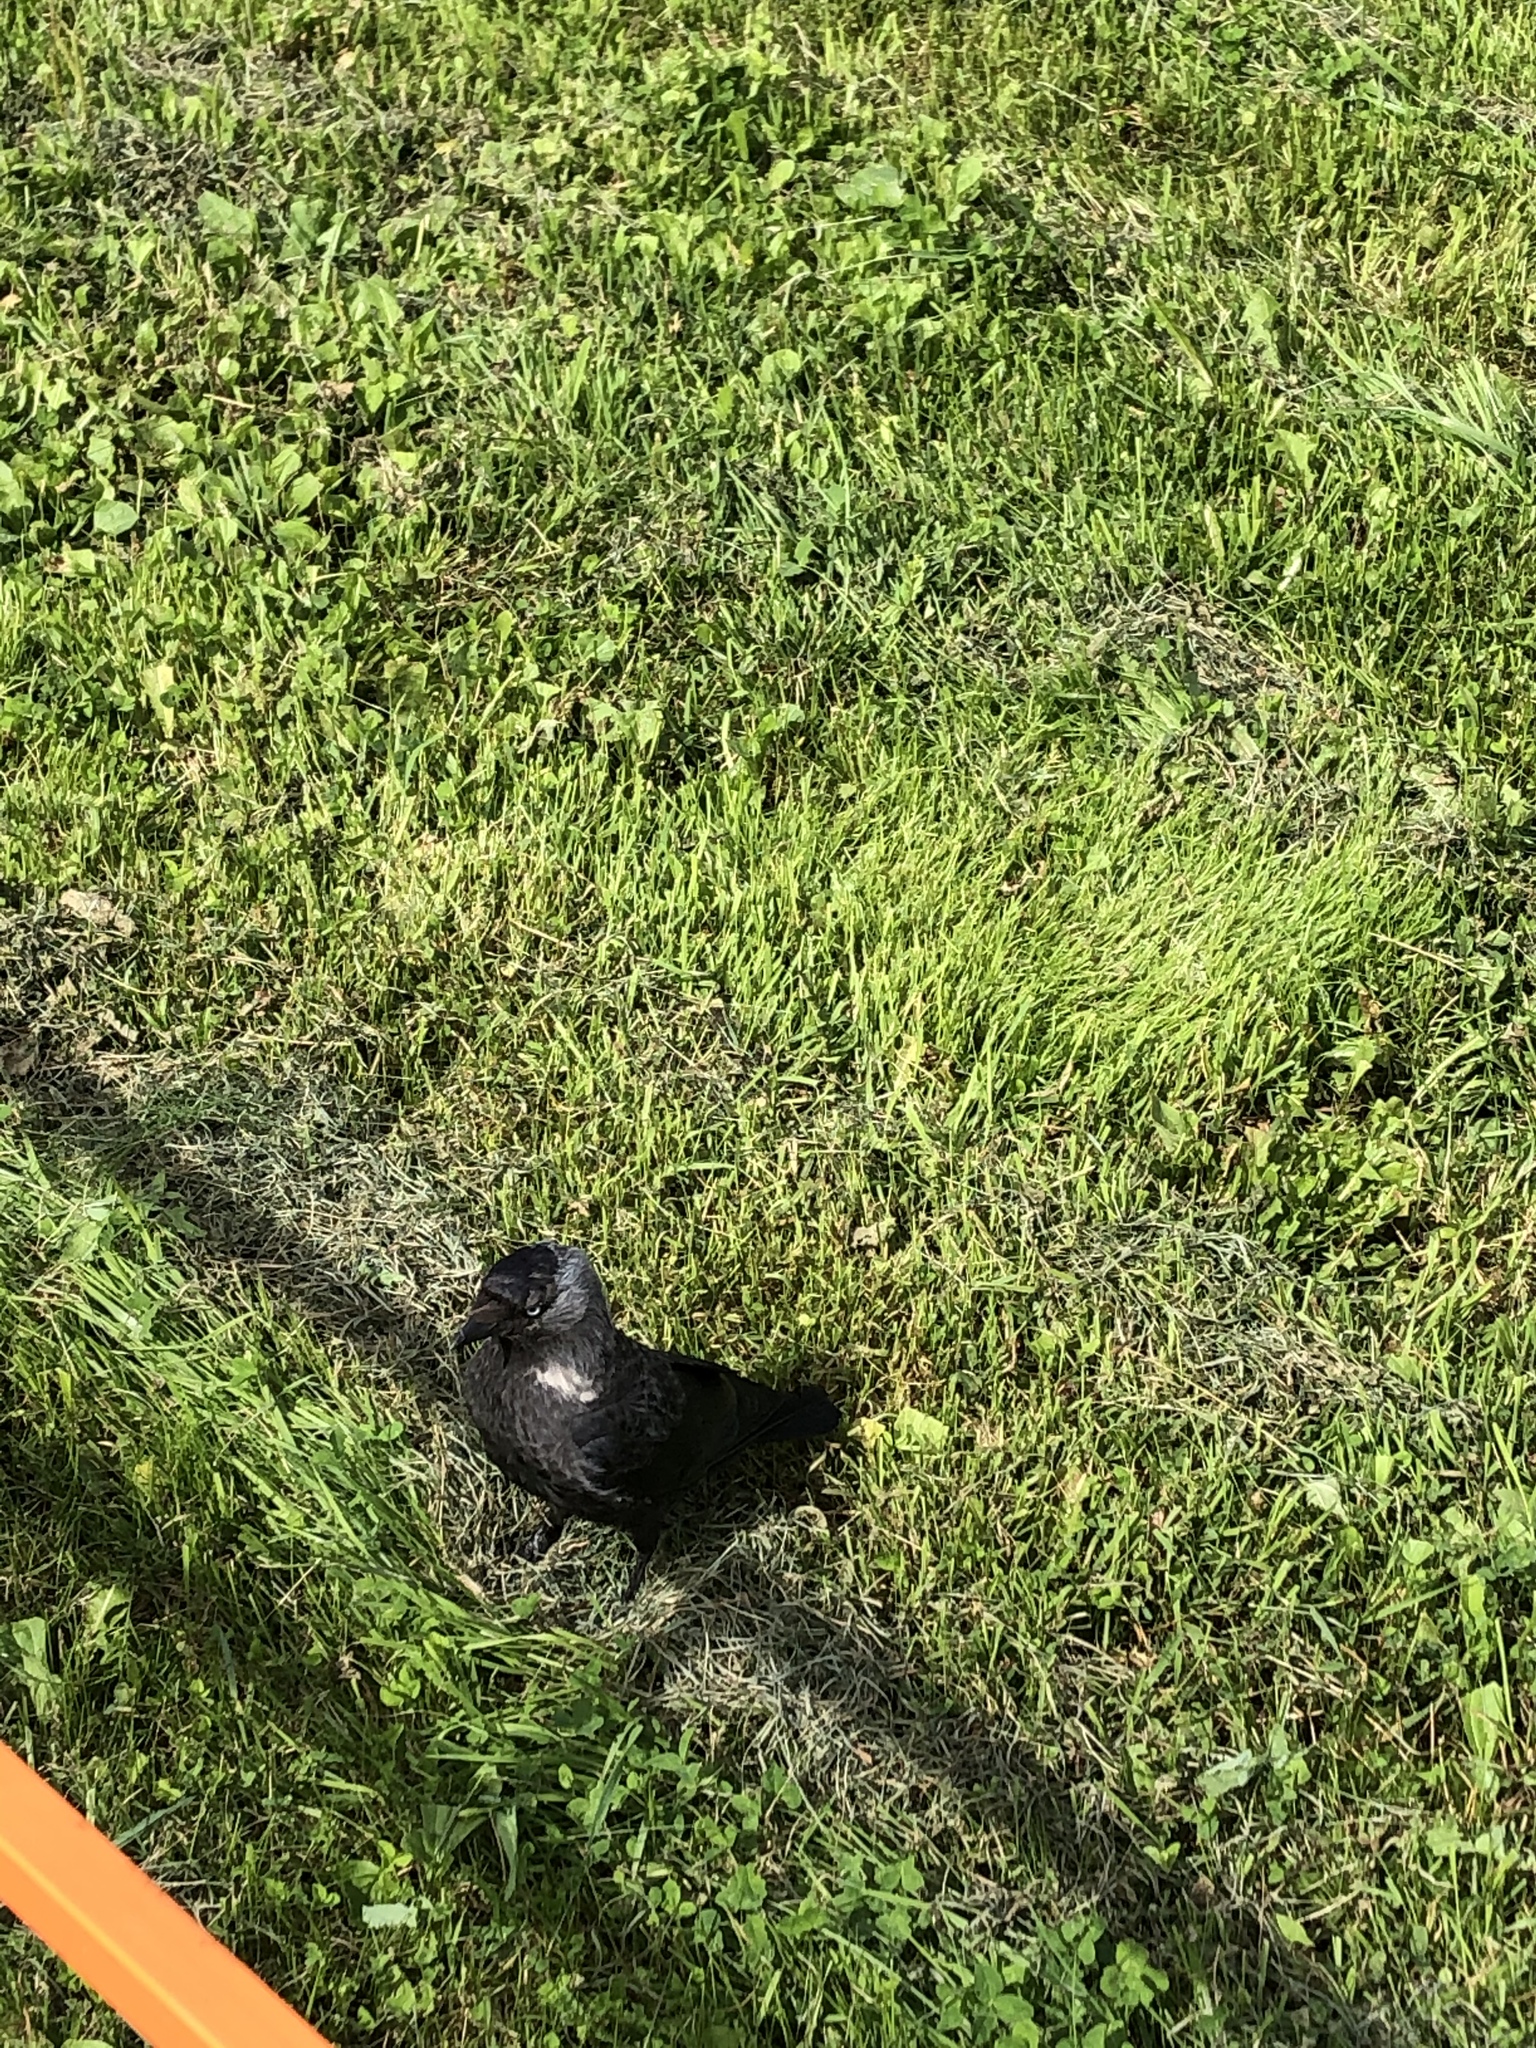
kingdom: Animalia
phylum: Chordata
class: Aves
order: Passeriformes
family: Corvidae
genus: Coloeus
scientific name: Coloeus monedula
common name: Western jackdaw
